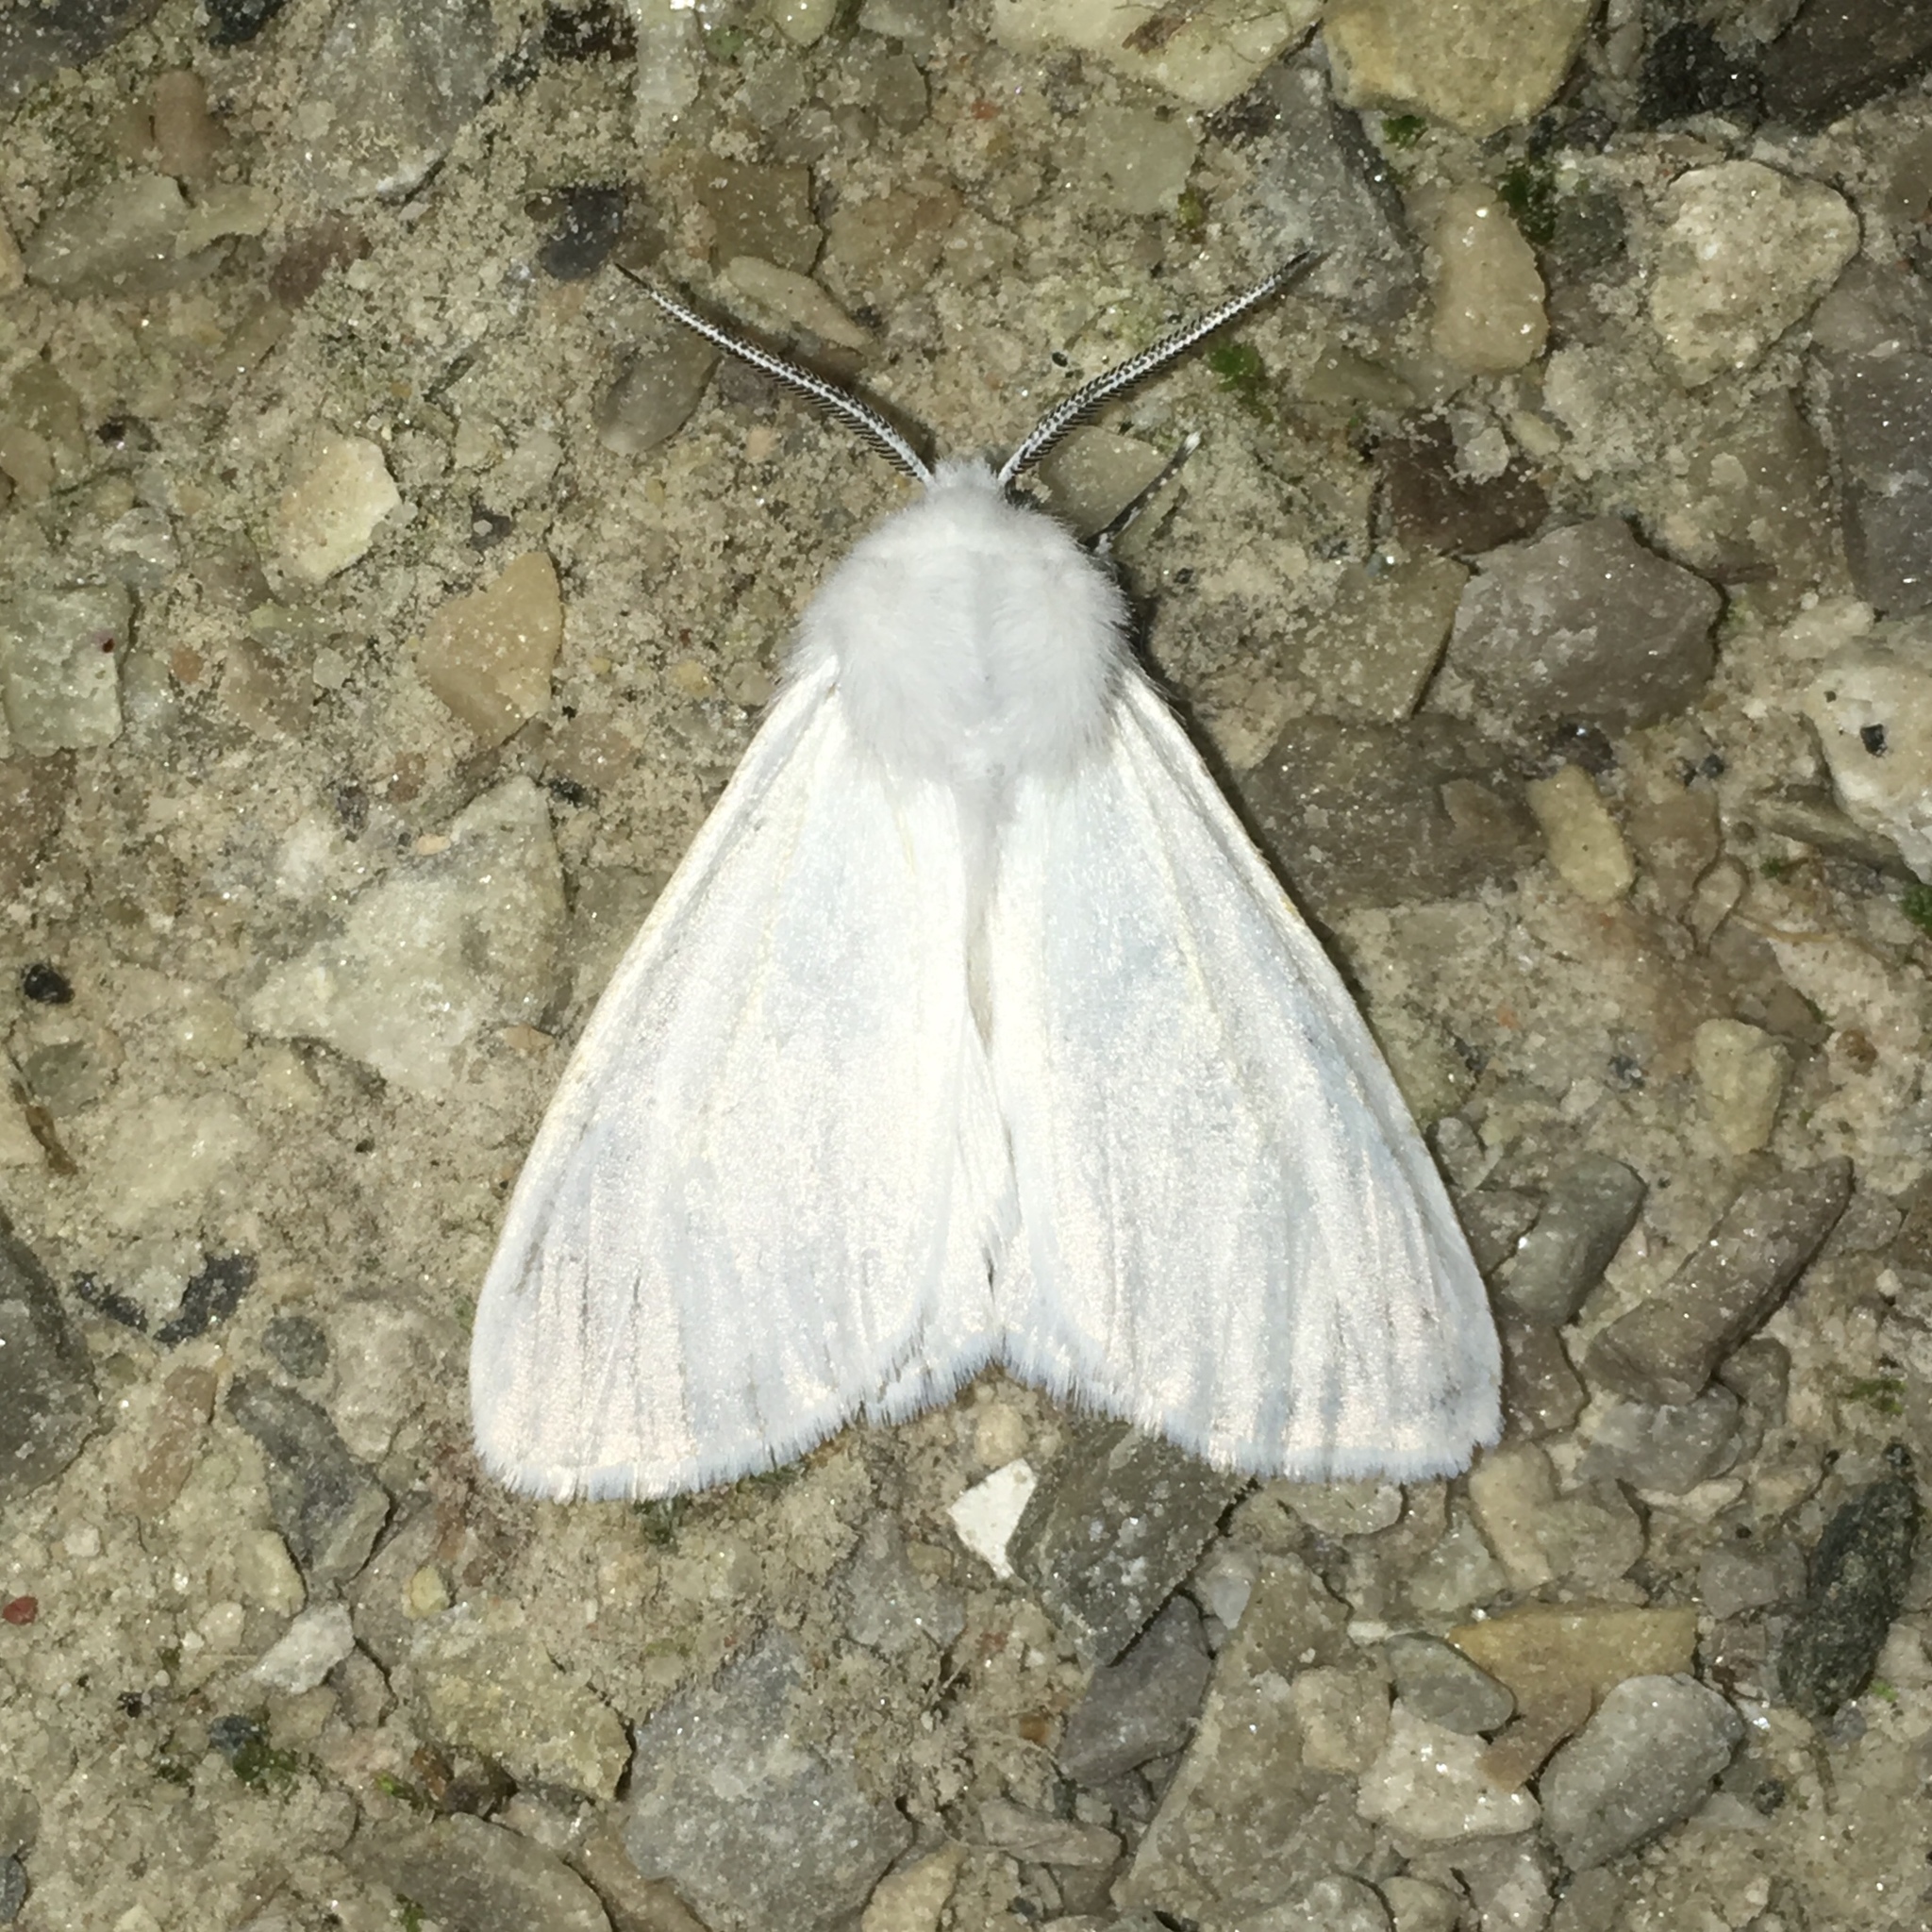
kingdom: Animalia
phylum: Arthropoda
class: Insecta
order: Lepidoptera
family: Erebidae
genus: Hyphantria
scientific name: Hyphantria cunea
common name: American white moth
